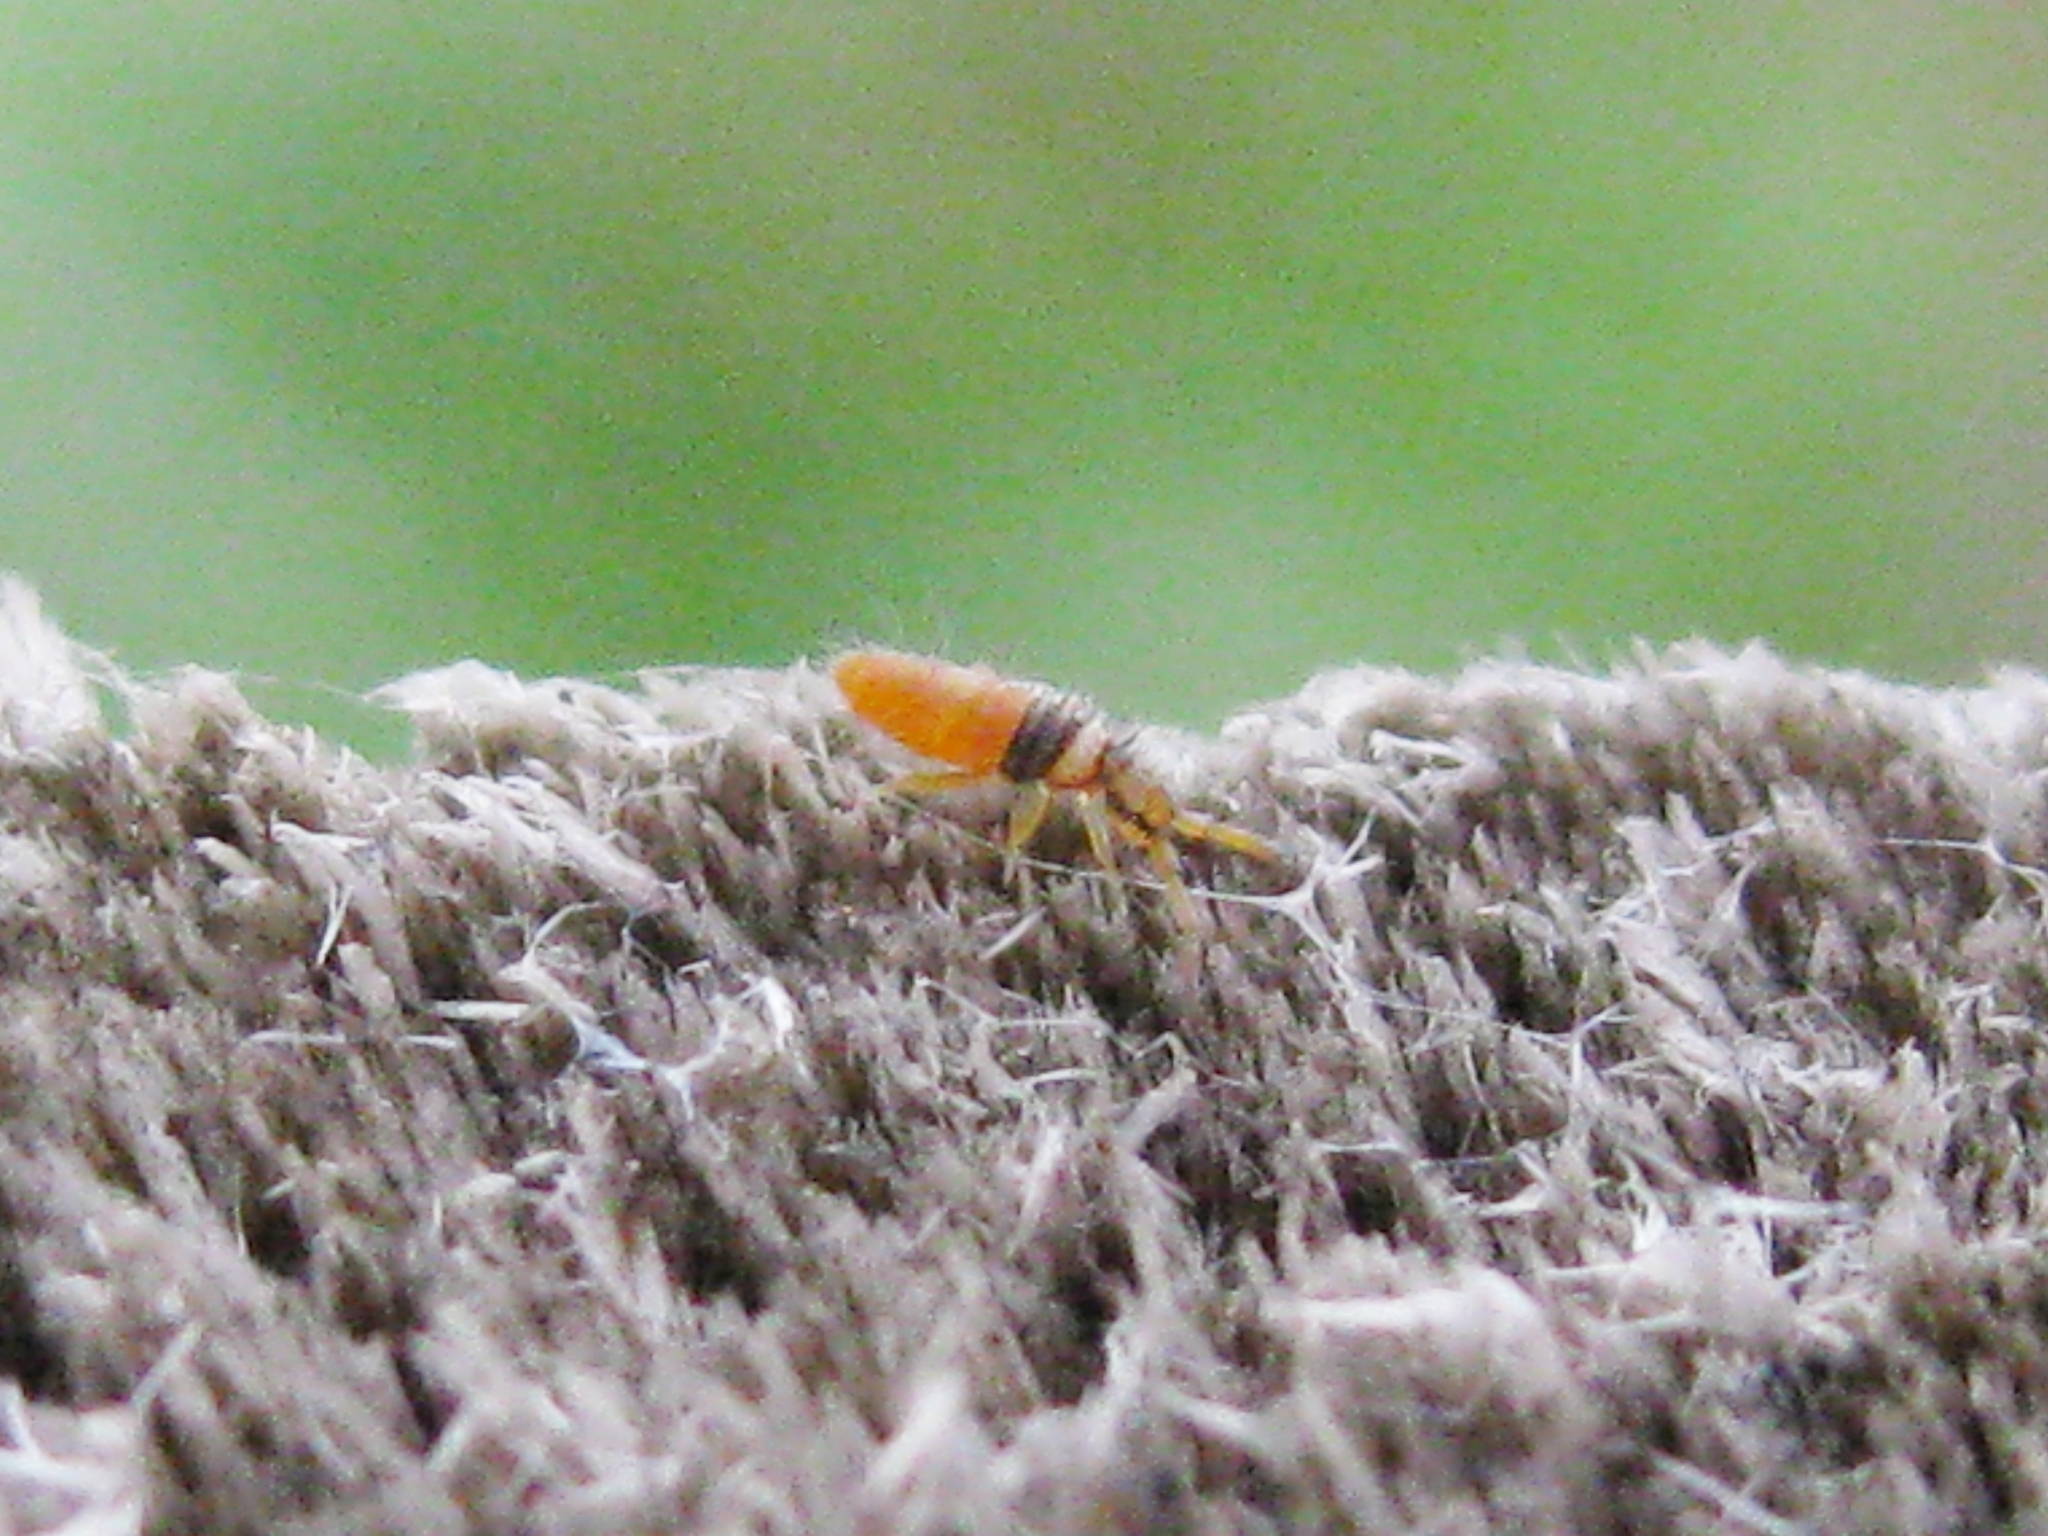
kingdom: Animalia
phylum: Arthropoda
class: Collembola
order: Entomobryomorpha
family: Entomobryidae
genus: Entomobrya
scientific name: Entomobrya atrocincta
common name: Springtail
